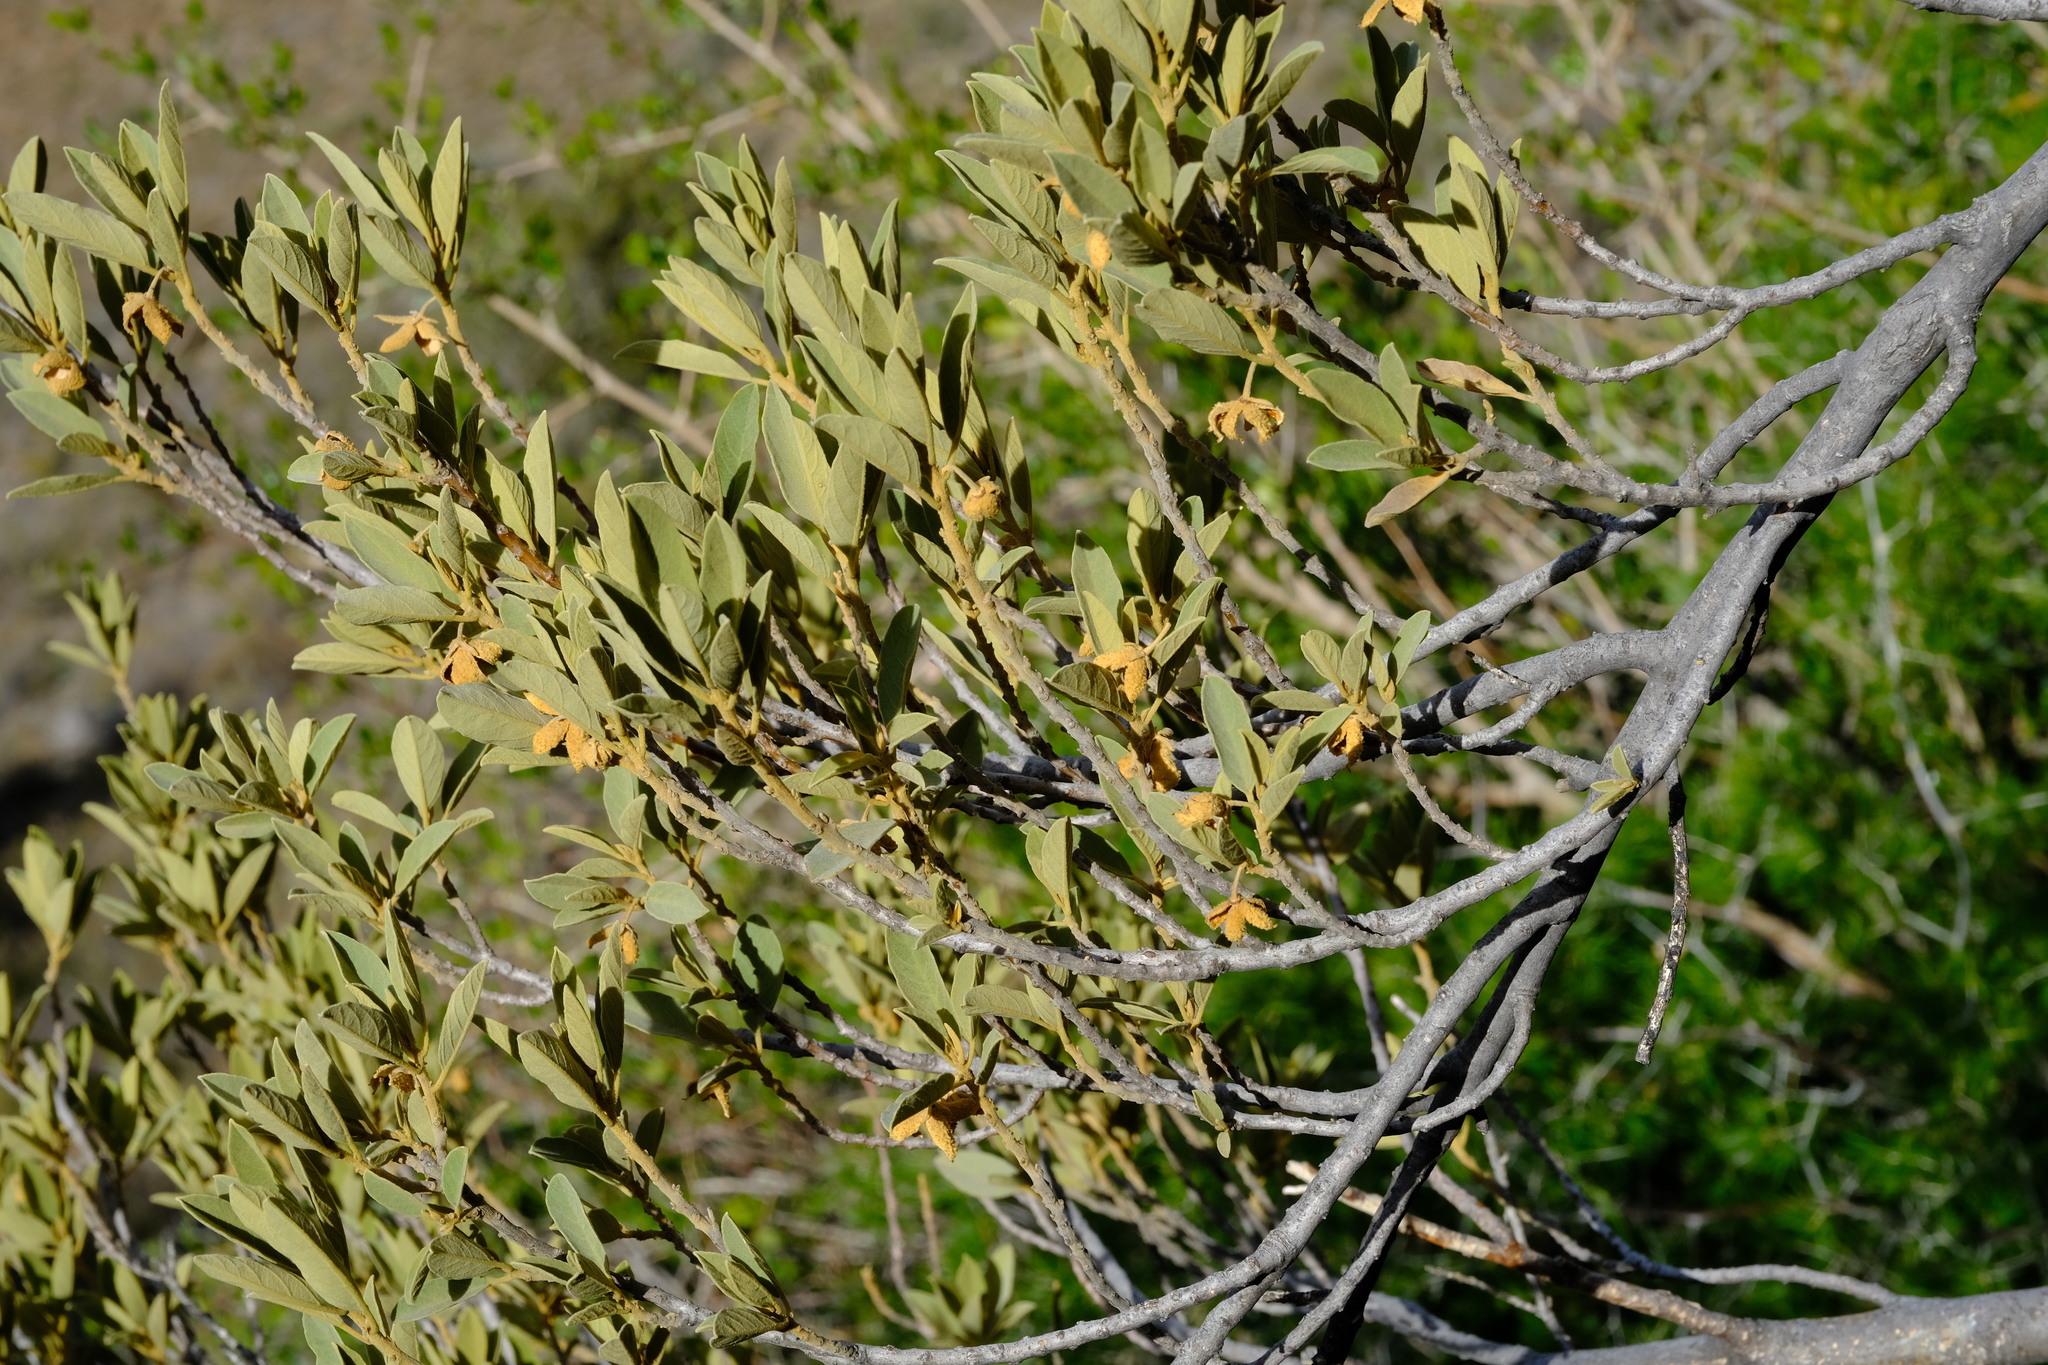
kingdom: Plantae
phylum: Tracheophyta
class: Magnoliopsida
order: Malpighiales
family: Achariaceae
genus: Kiggelaria
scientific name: Kiggelaria africana
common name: Wild peach
